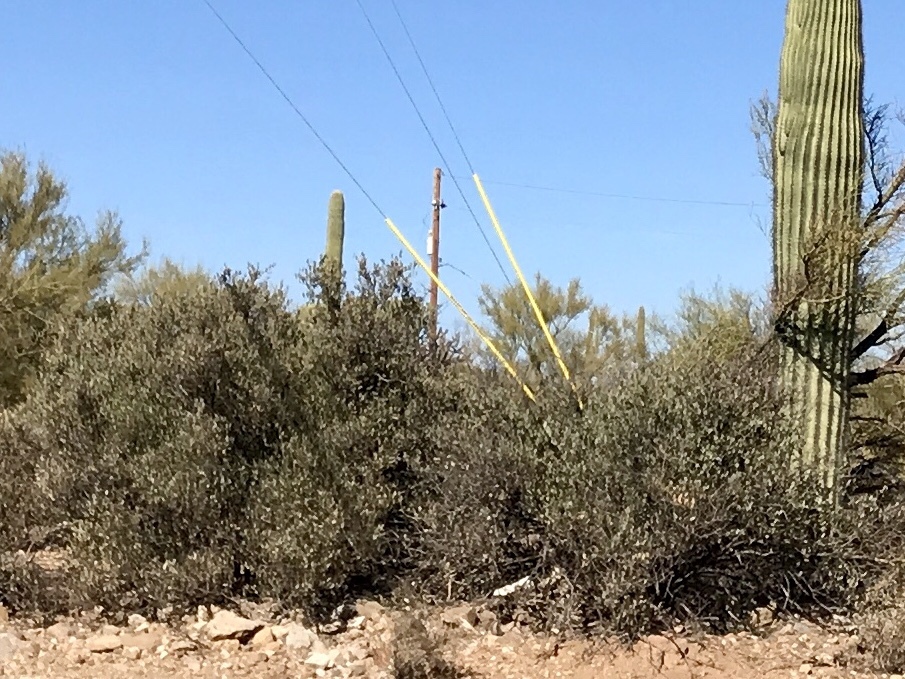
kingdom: Plantae
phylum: Tracheophyta
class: Magnoliopsida
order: Caryophyllales
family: Simmondsiaceae
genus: Simmondsia
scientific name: Simmondsia chinensis
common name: Jojoba
